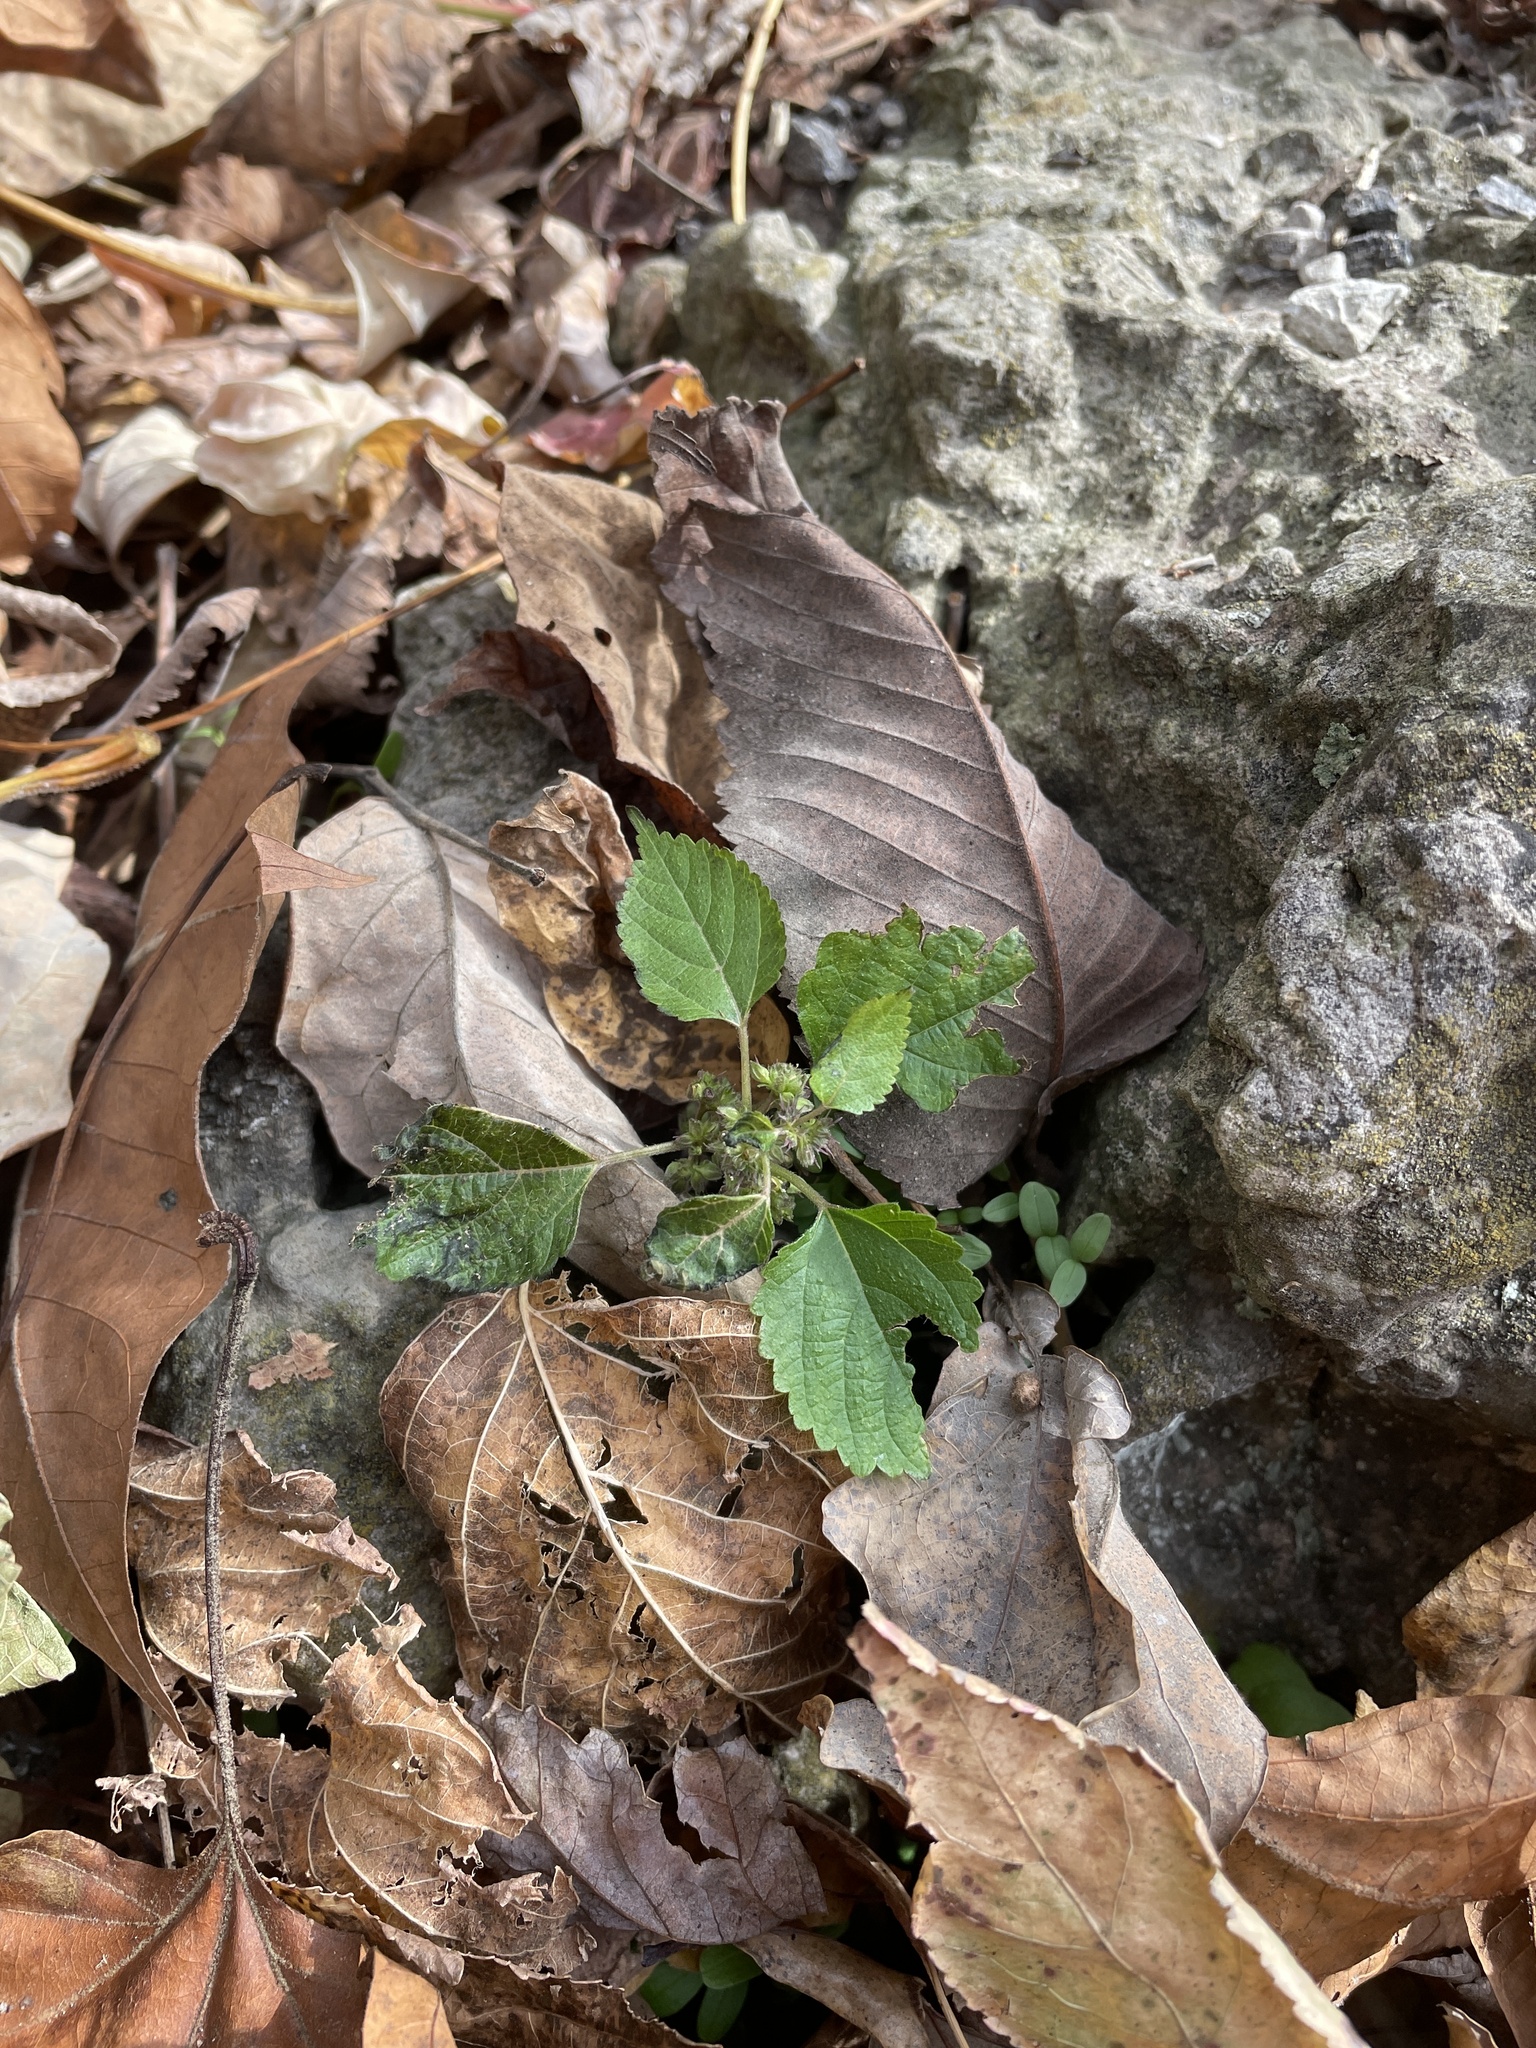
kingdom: Plantae
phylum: Tracheophyta
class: Magnoliopsida
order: Rosales
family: Moraceae
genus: Fatoua
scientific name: Fatoua villosa
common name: Hairy crabweed
